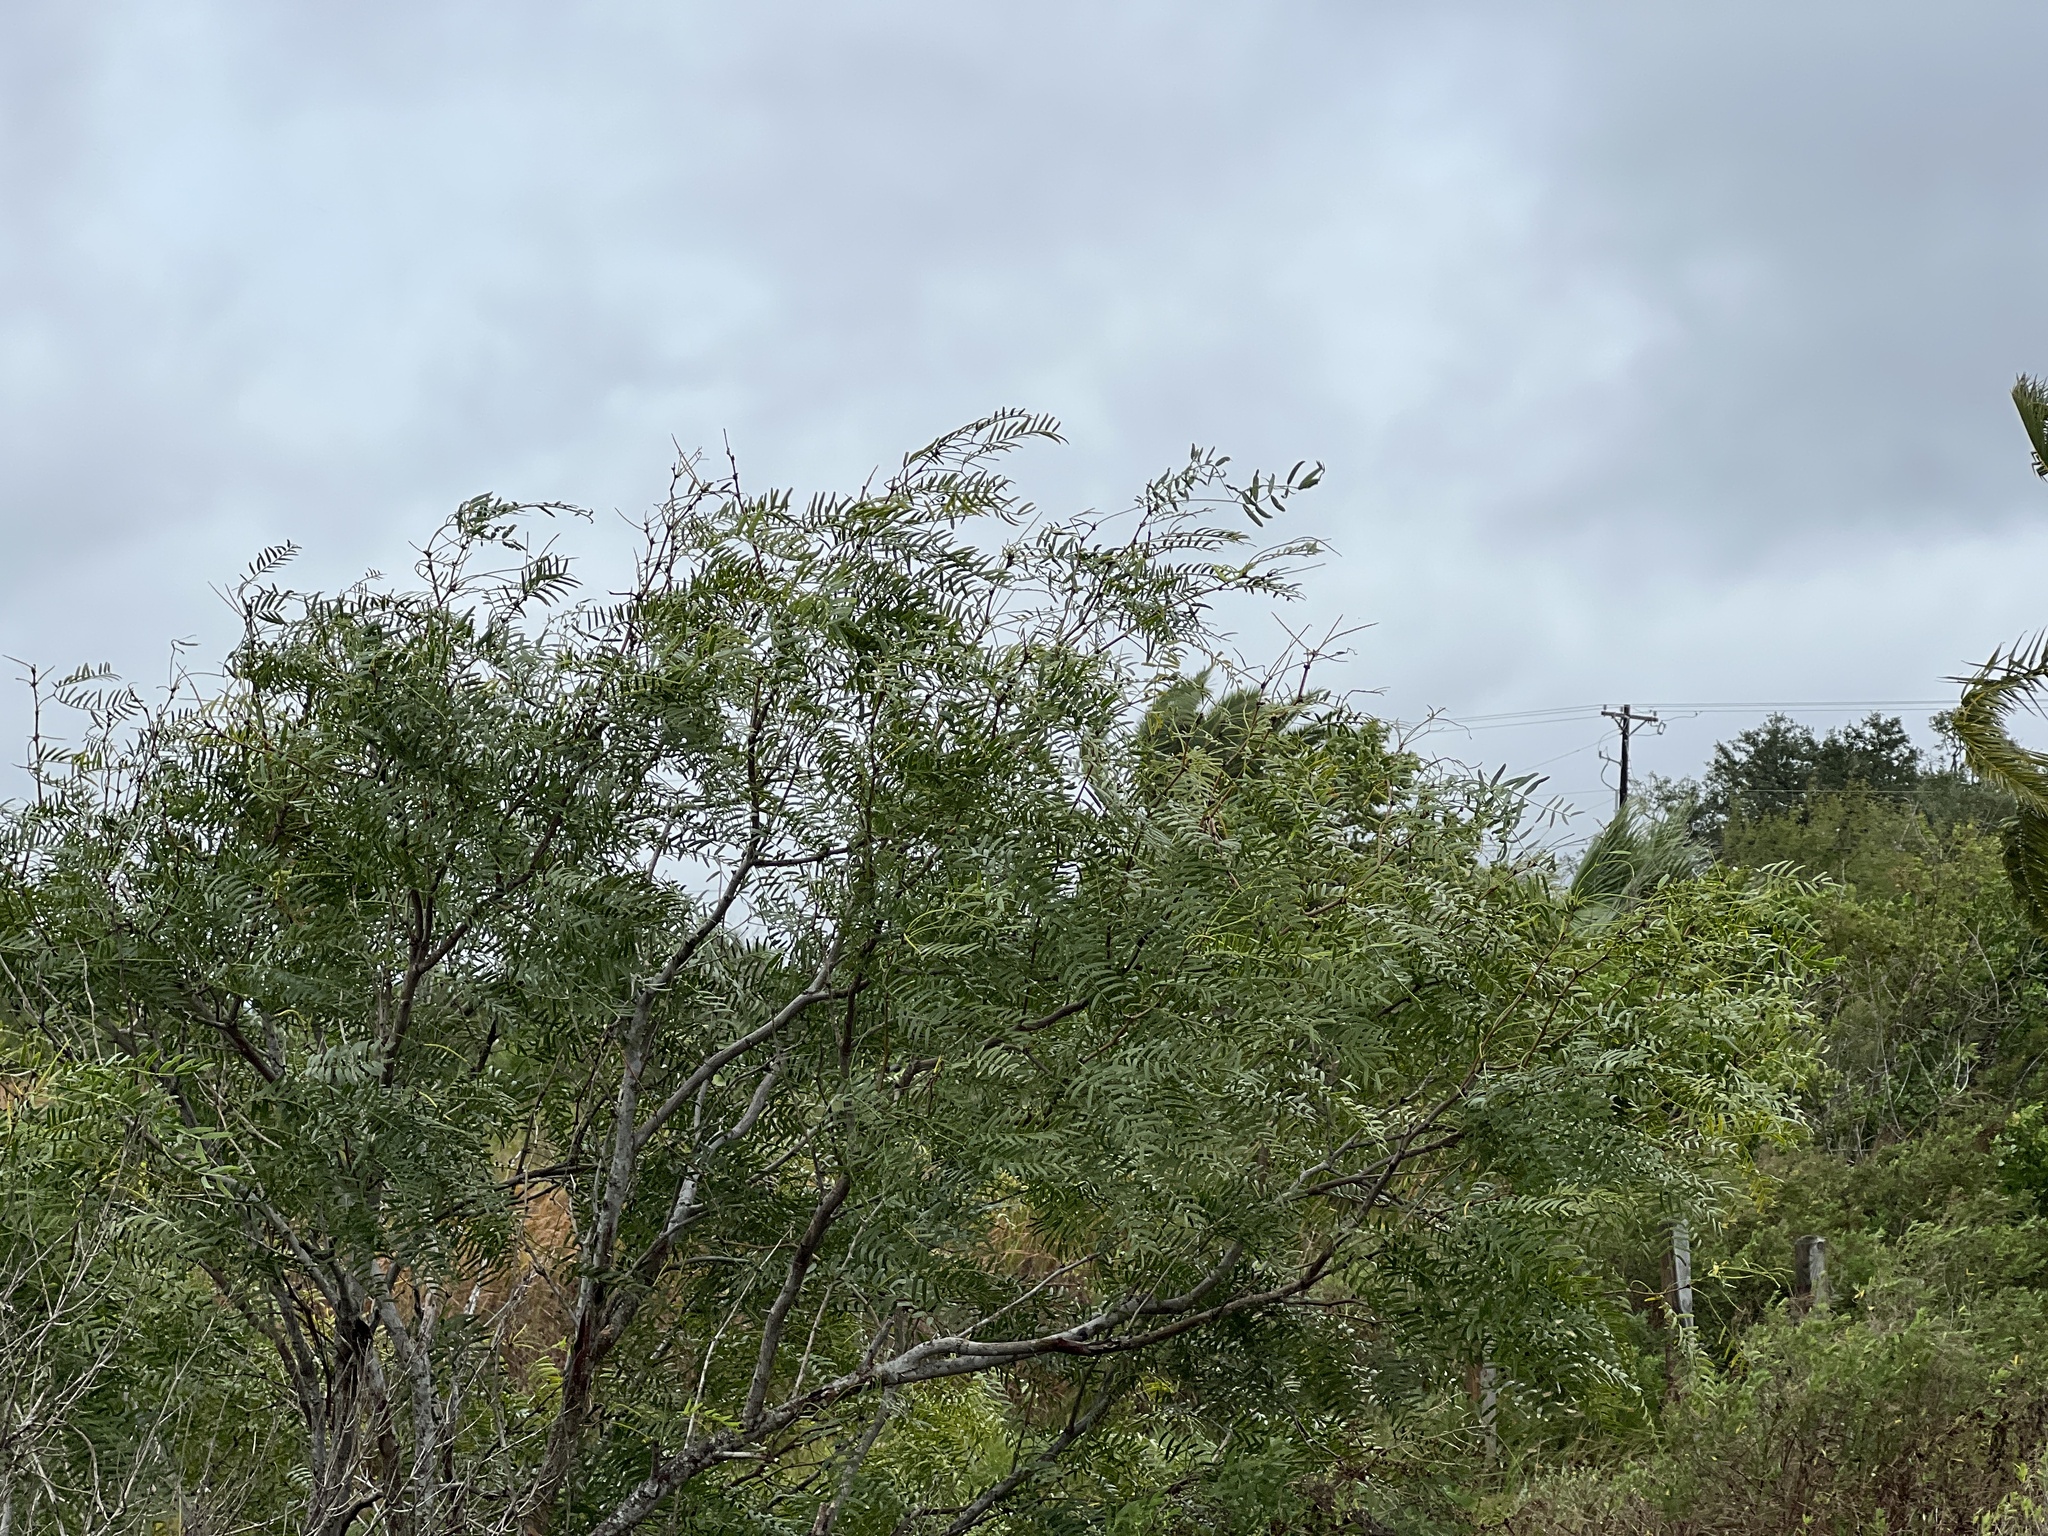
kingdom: Plantae
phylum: Tracheophyta
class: Magnoliopsida
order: Fabales
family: Fabaceae
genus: Prosopis
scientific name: Prosopis glandulosa
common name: Honey mesquite
